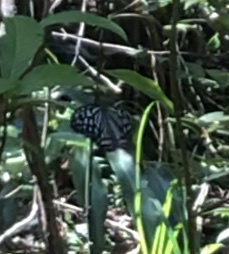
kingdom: Animalia
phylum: Arthropoda
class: Insecta
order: Lepidoptera
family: Nymphalidae
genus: Ideopsis
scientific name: Ideopsis similis
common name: Ceylon blue glassy tiger
